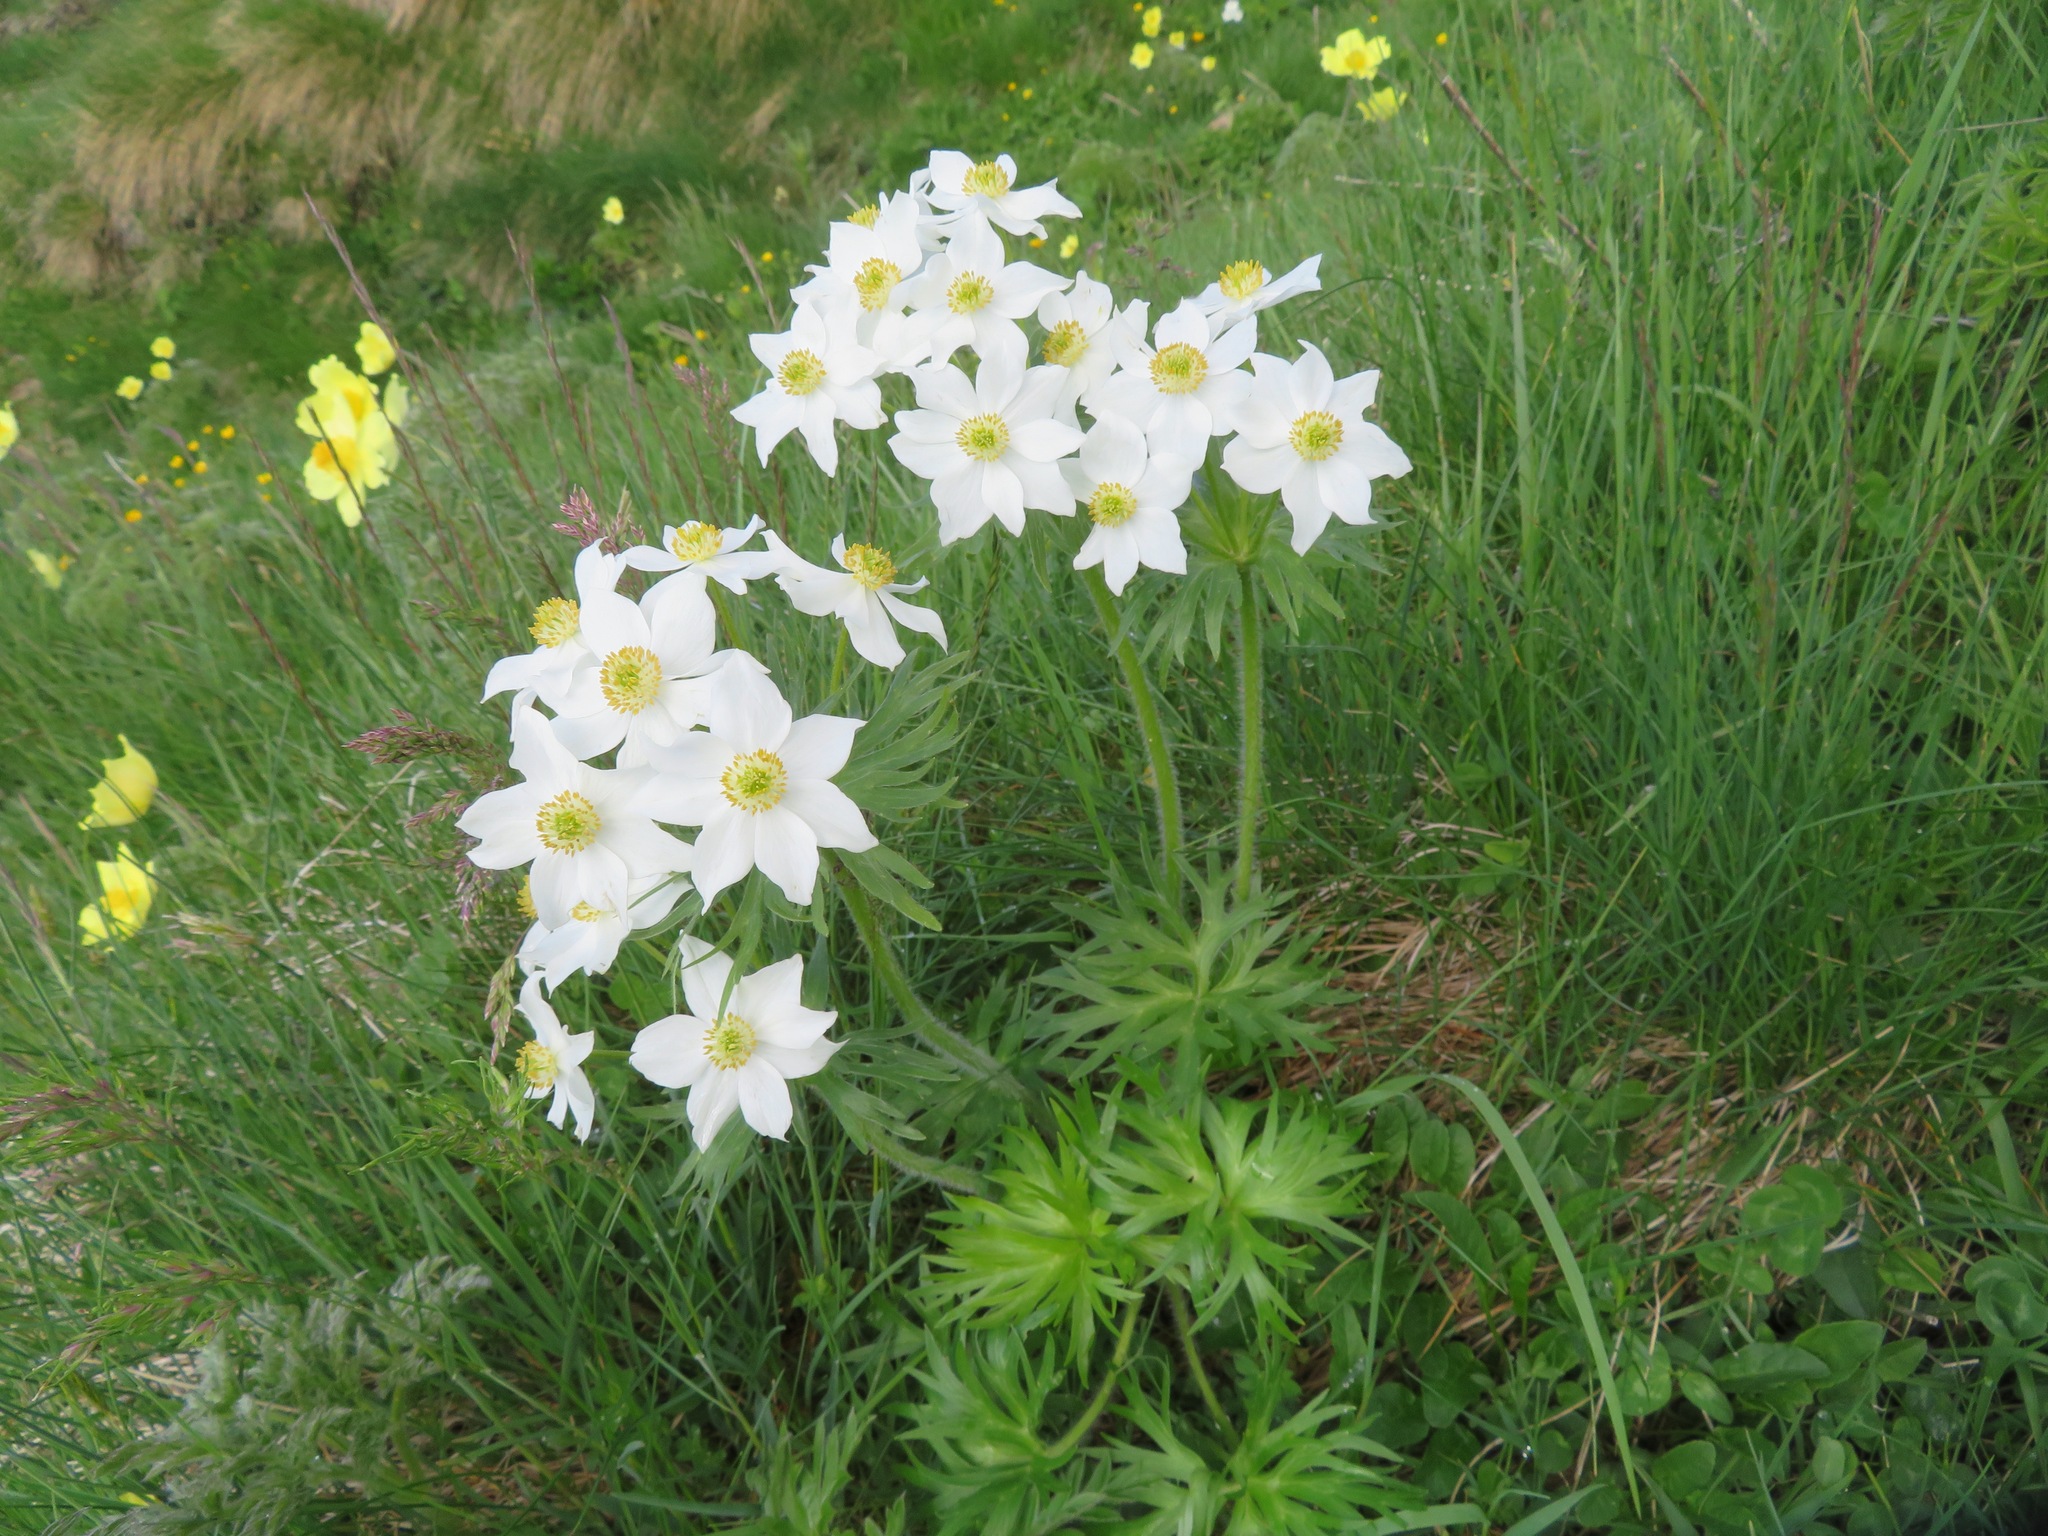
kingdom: Plantae
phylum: Tracheophyta
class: Magnoliopsida
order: Ranunculales
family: Ranunculaceae
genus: Anemonastrum
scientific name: Anemonastrum narcissiflorum
